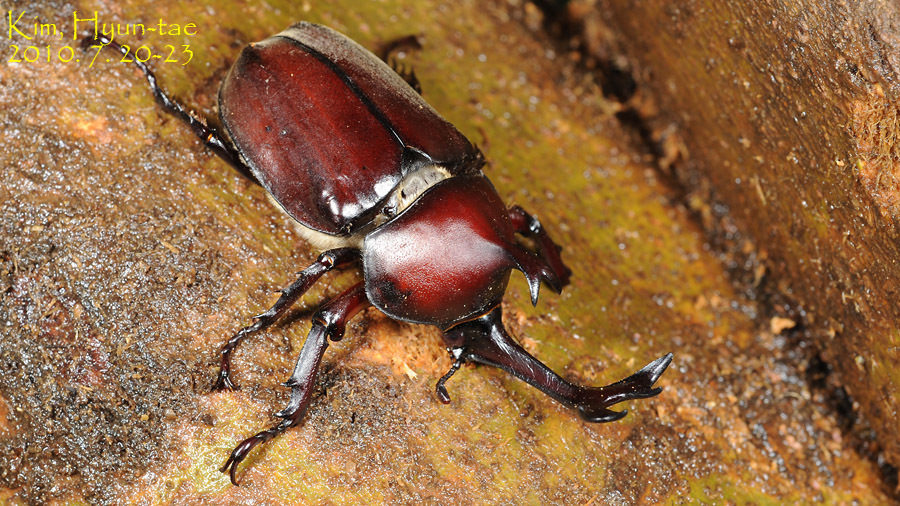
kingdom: Animalia
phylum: Arthropoda
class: Insecta
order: Coleoptera
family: Scarabaeidae
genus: Trypoxylus
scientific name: Trypoxylus dichotomus
